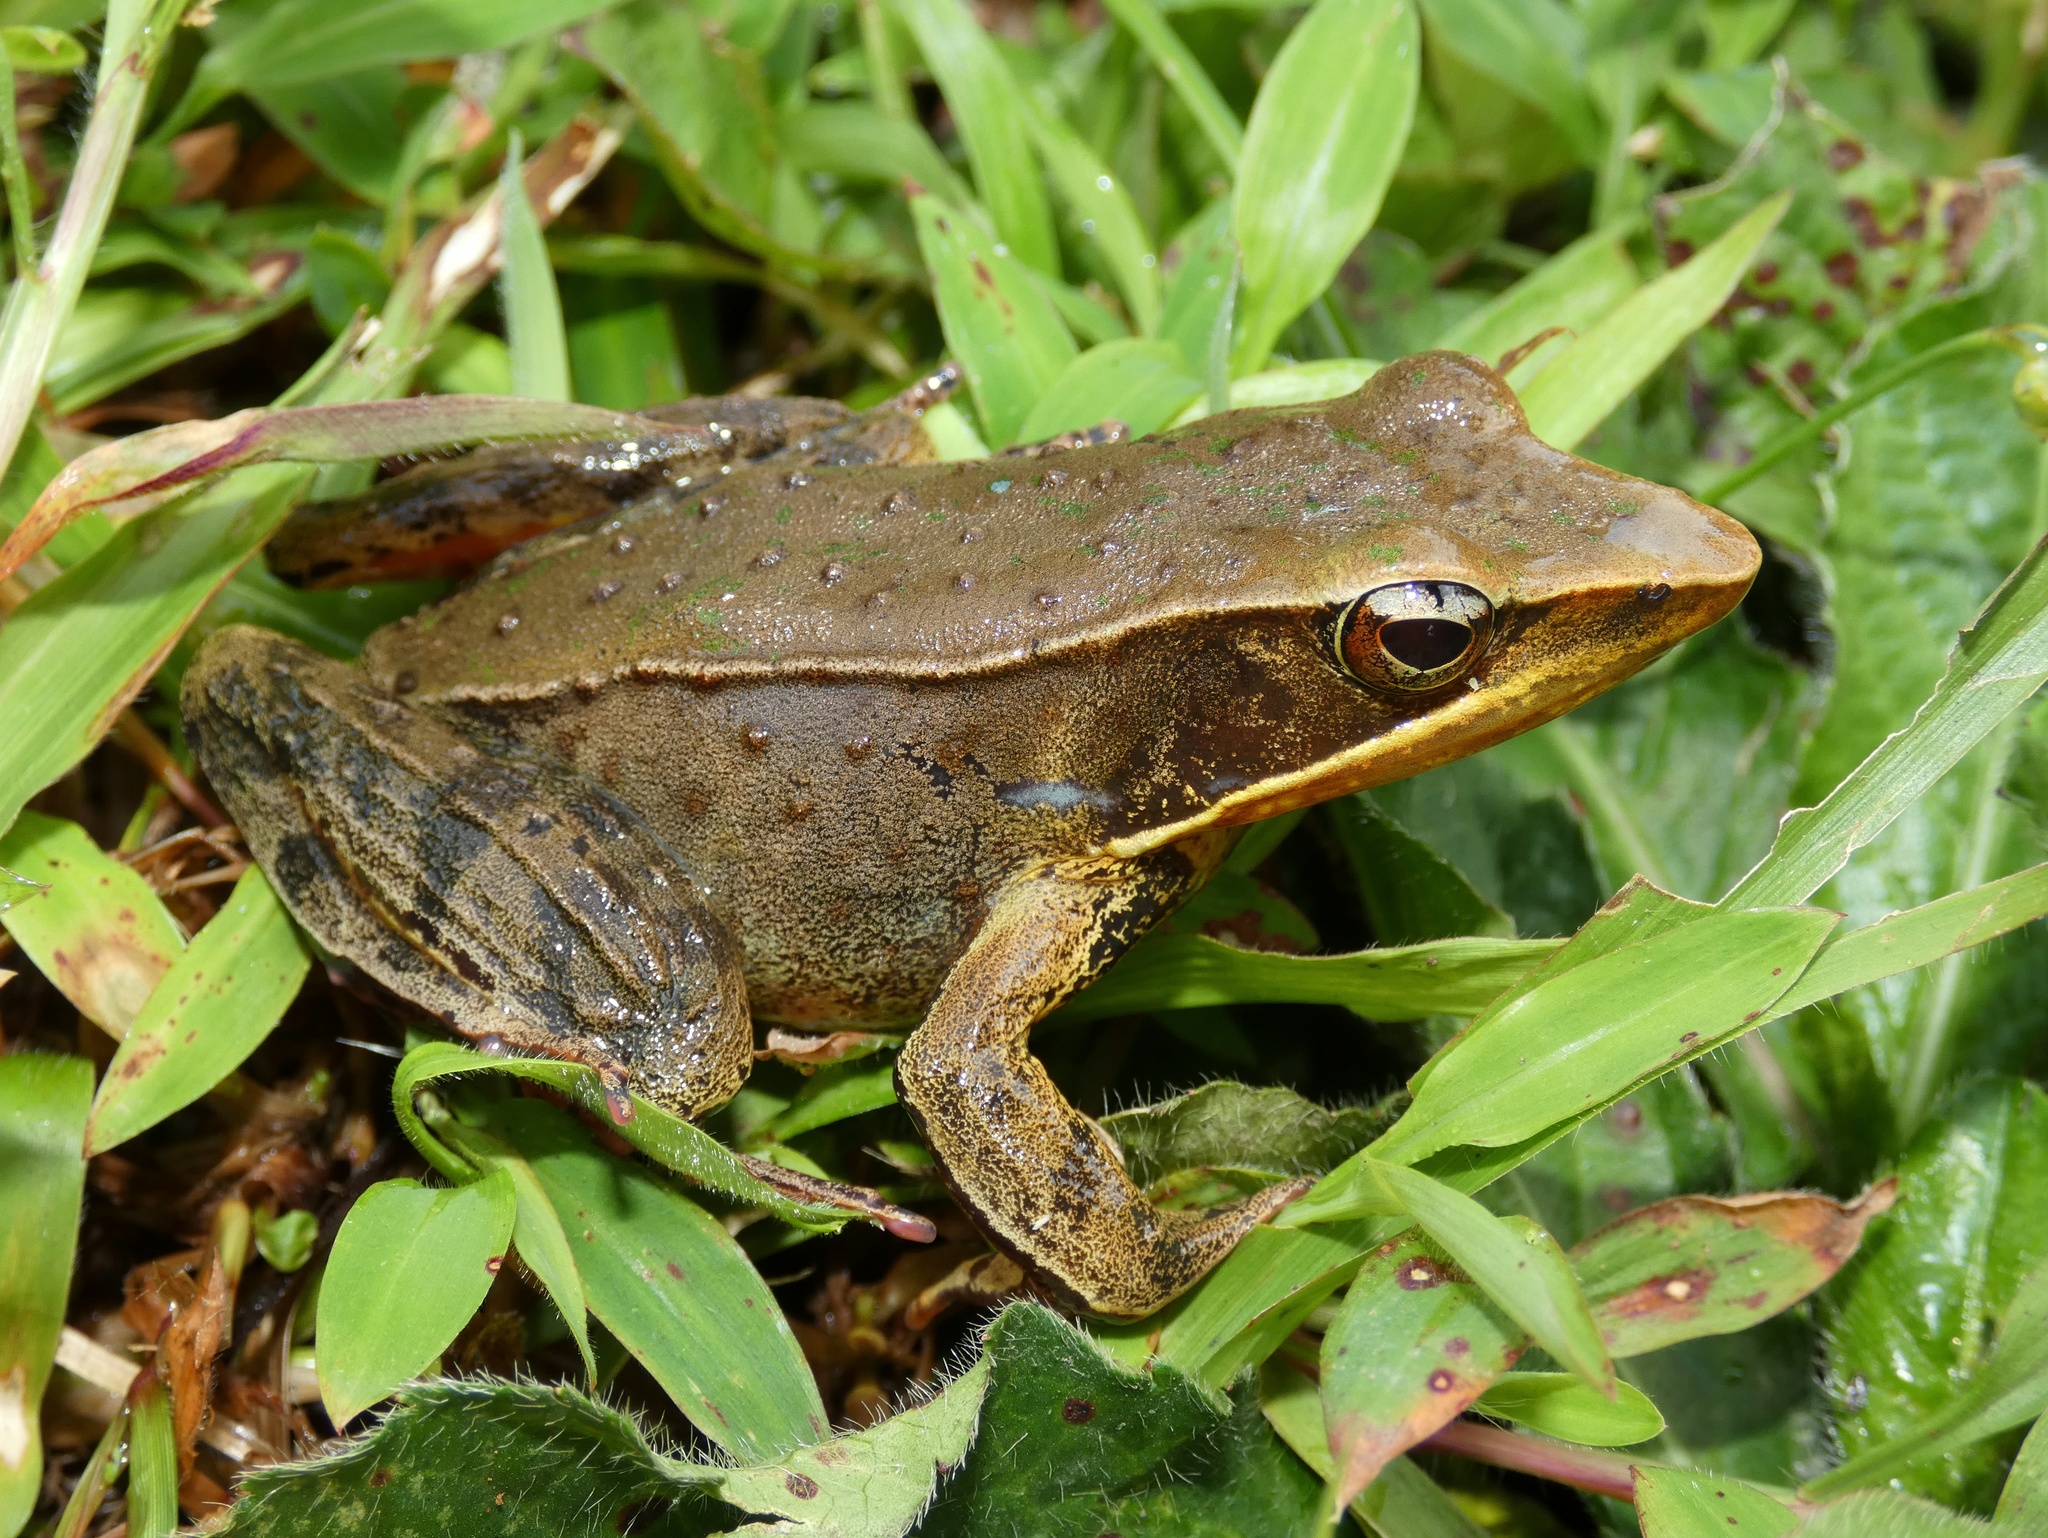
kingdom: Animalia
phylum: Chordata
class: Amphibia
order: Anura
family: Ranidae
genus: Lithobates
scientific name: Lithobates warszewitschii
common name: Warszewitsch's frog
